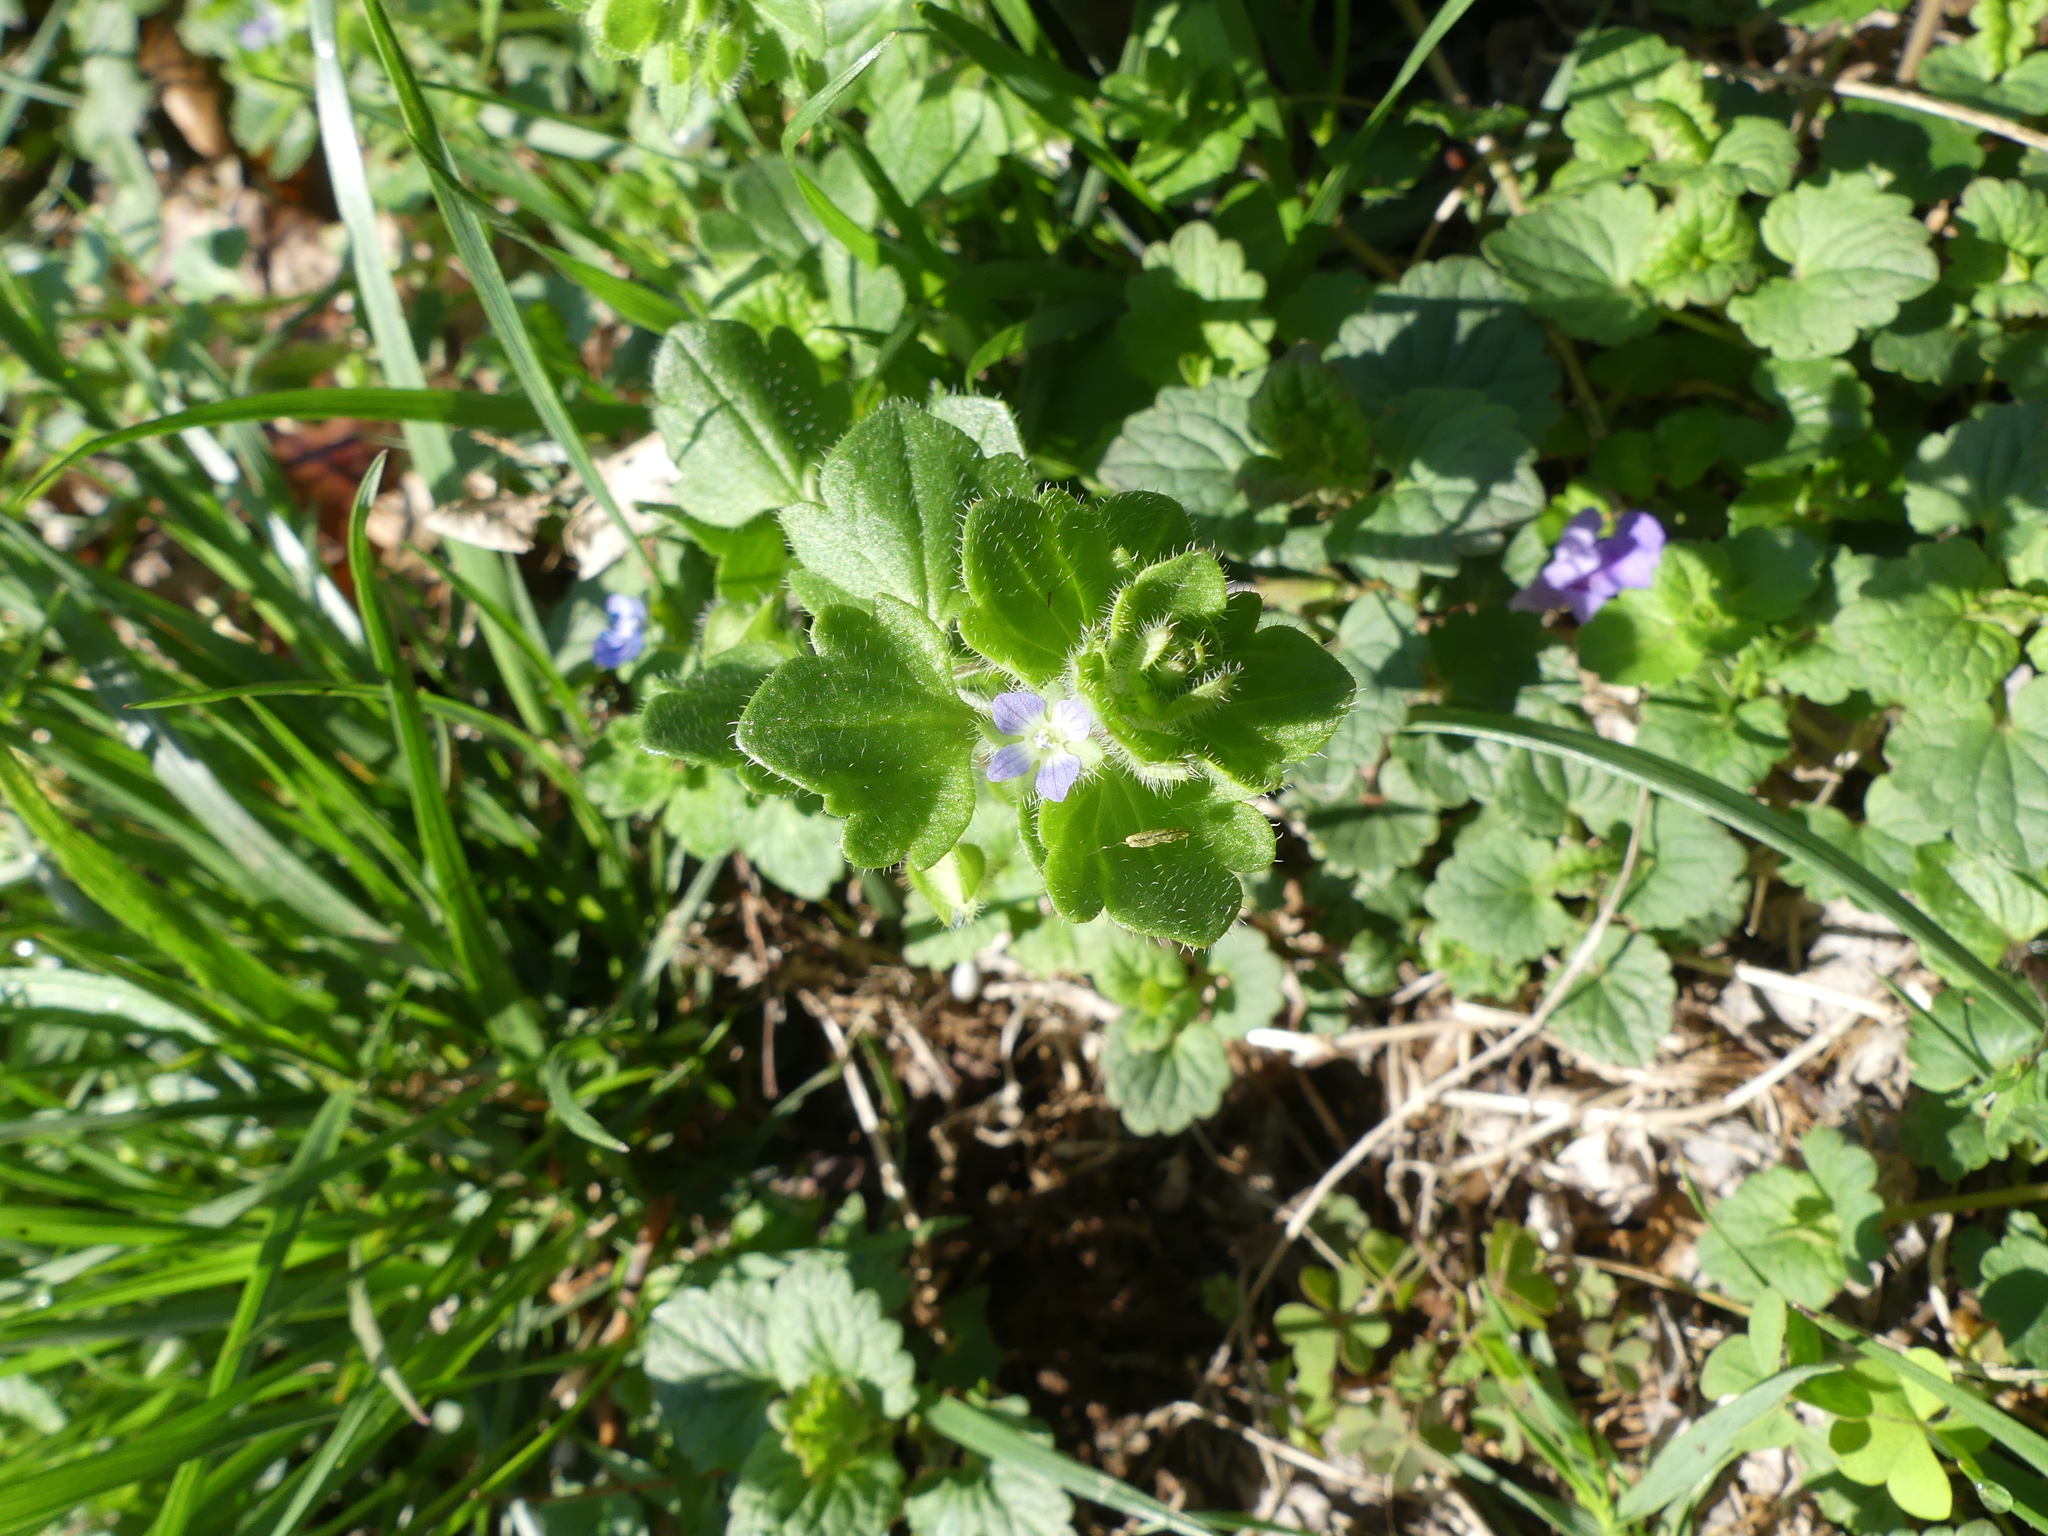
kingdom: Plantae
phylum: Tracheophyta
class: Magnoliopsida
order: Lamiales
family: Plantaginaceae
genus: Veronica
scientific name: Veronica hederifolia
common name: Ivy-leaved speedwell
